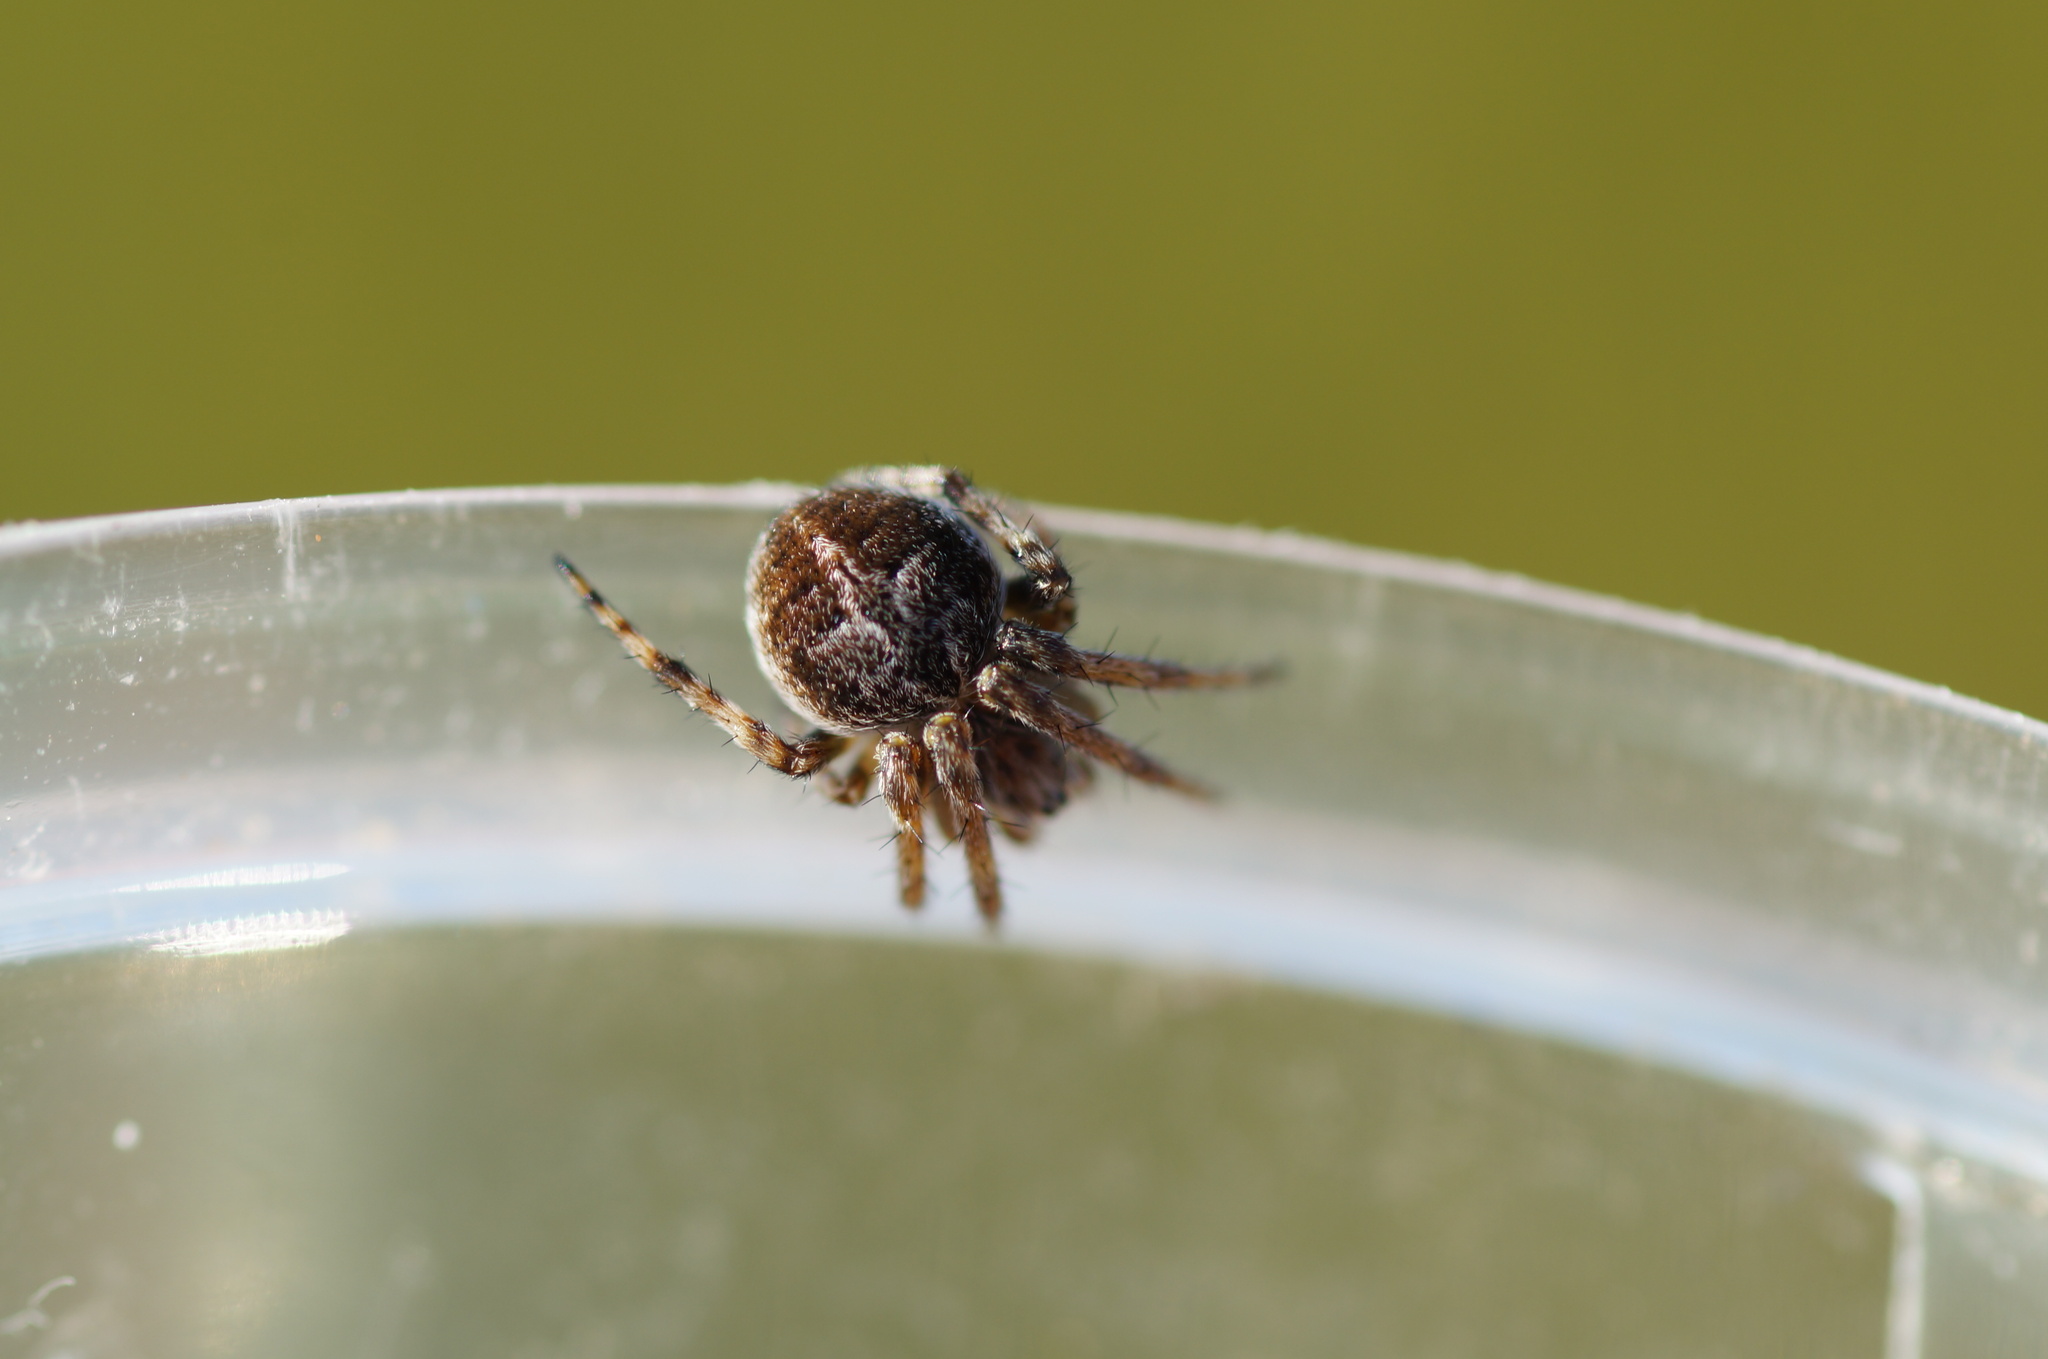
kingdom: Animalia
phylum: Arthropoda
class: Arachnida
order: Araneae
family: Araneidae
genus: Agalenatea
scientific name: Agalenatea redii
